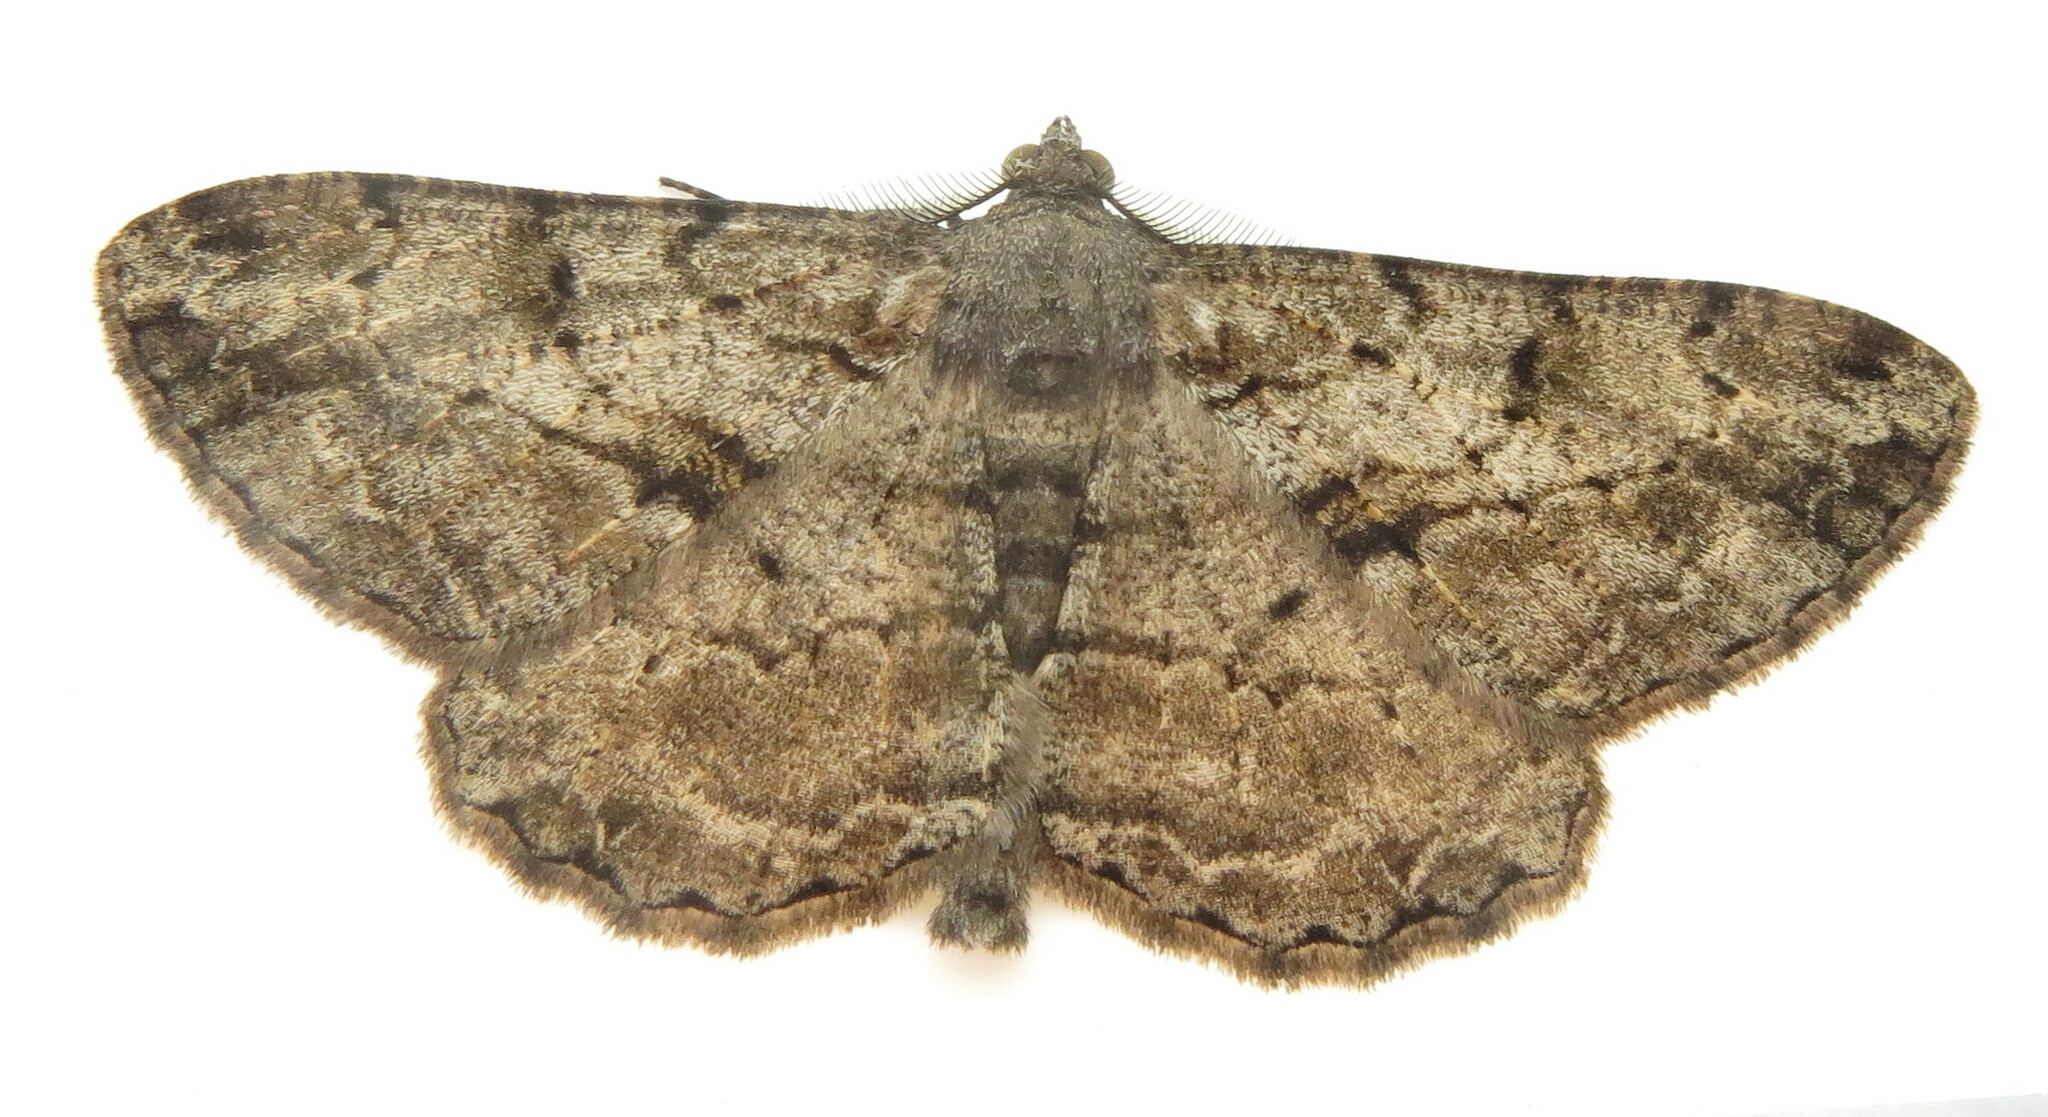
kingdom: Animalia
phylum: Arthropoda
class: Insecta
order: Lepidoptera
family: Geometridae
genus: Peribatodes
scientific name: Peribatodes rhomboidaria
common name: Willow beauty
